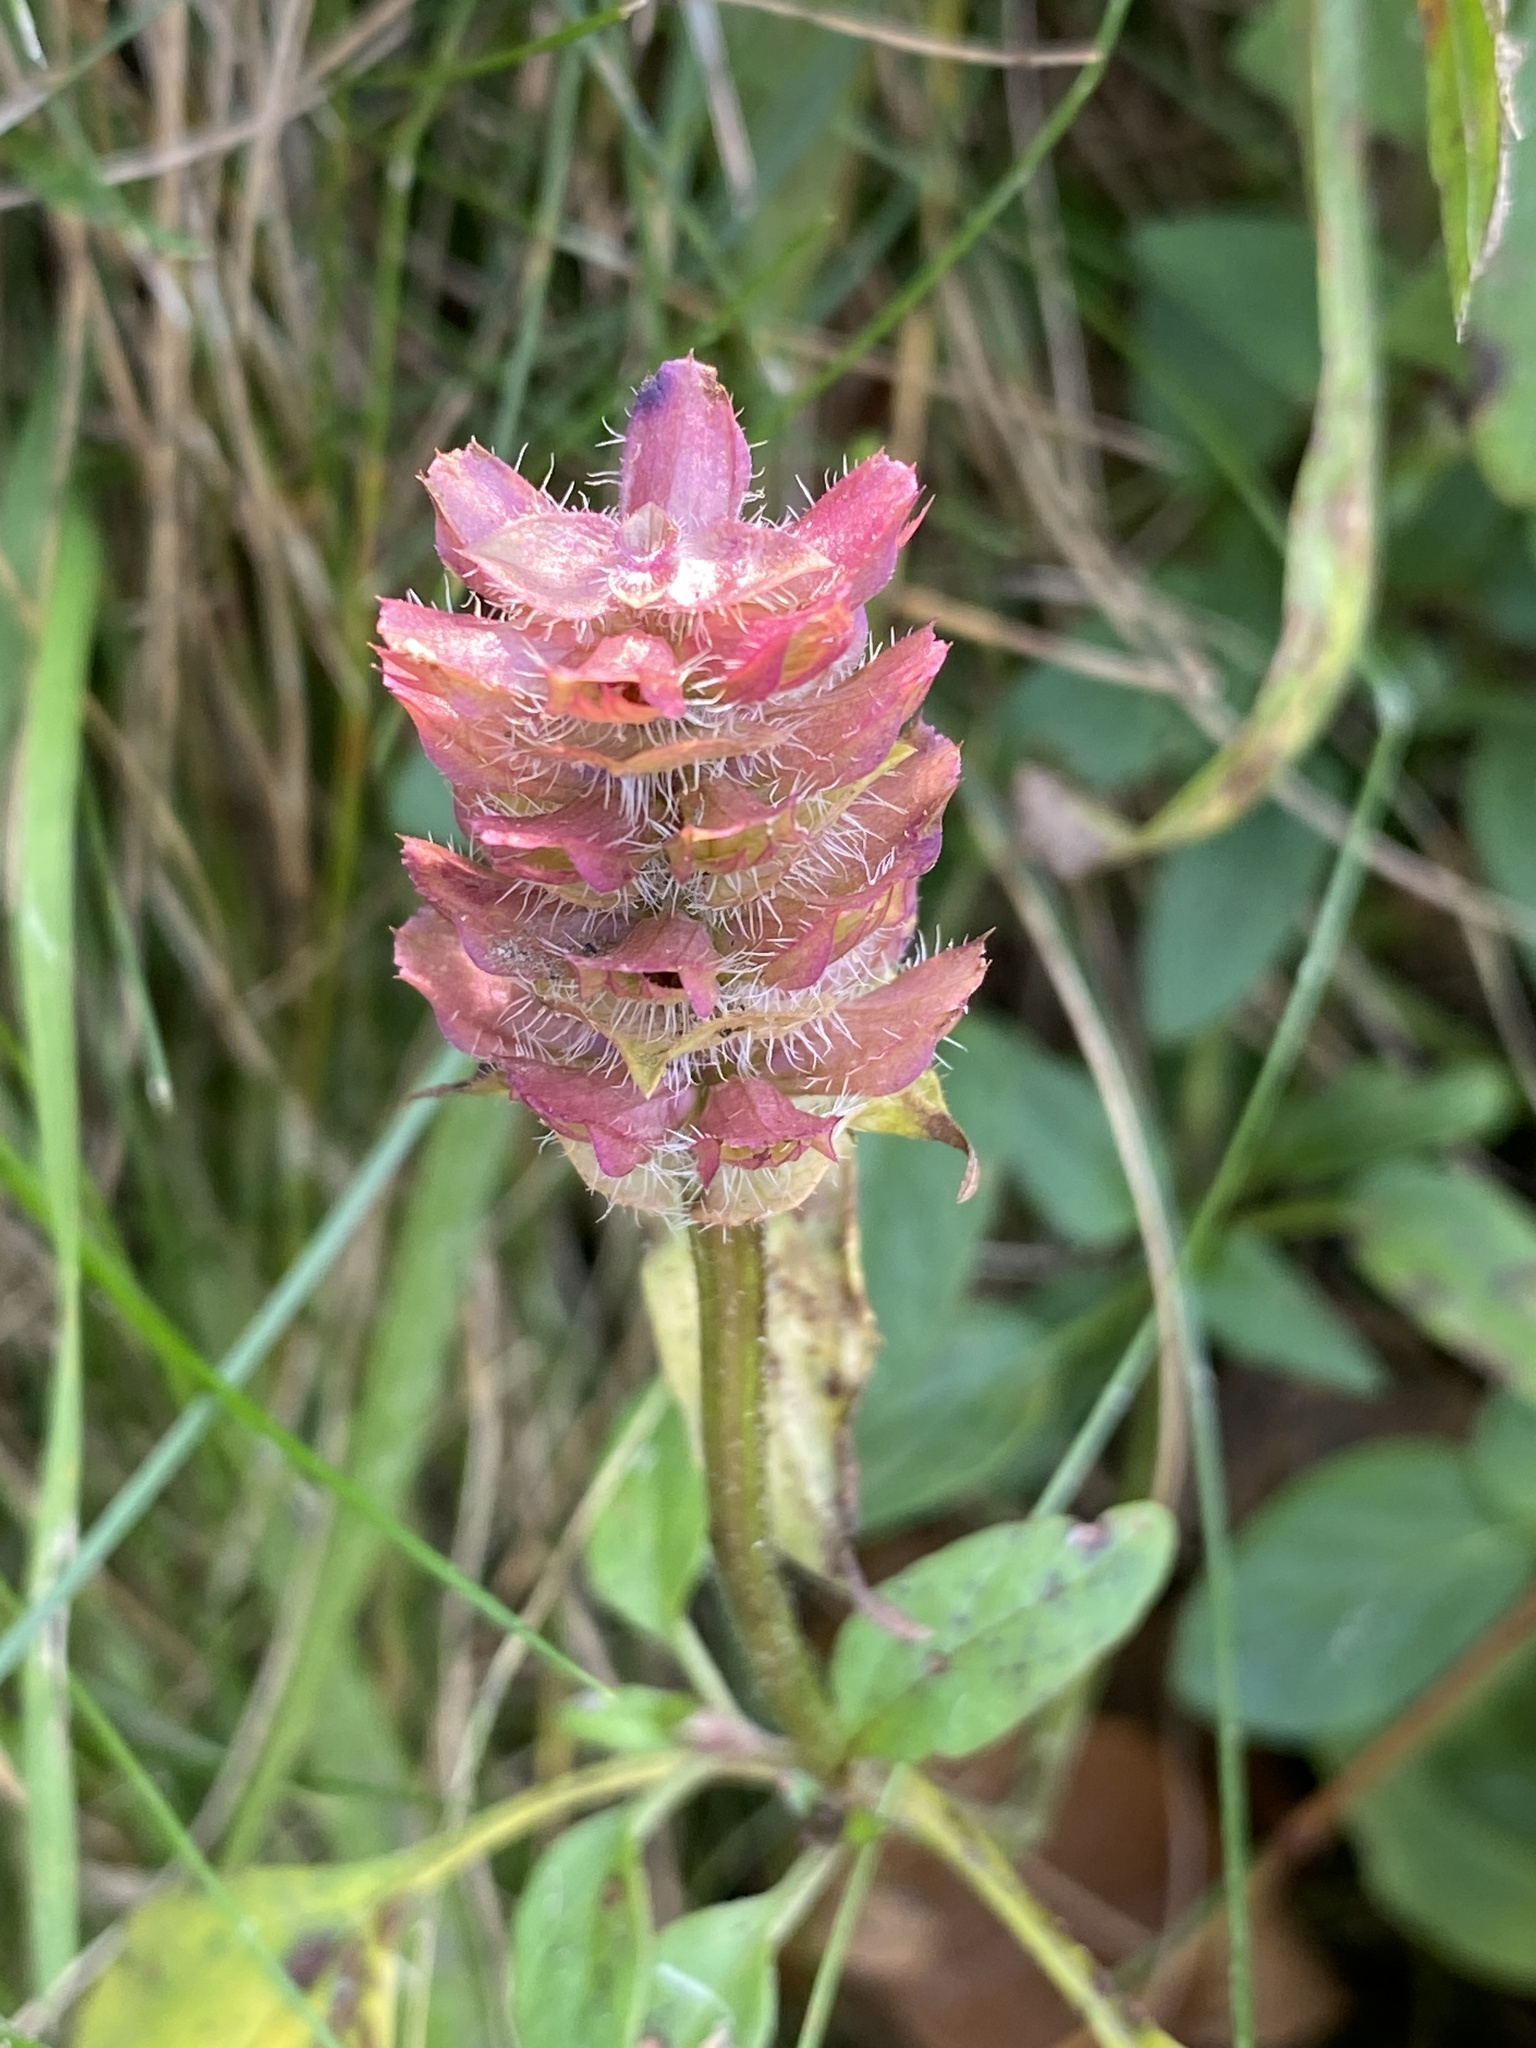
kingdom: Plantae
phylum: Tracheophyta
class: Magnoliopsida
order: Lamiales
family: Lamiaceae
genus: Prunella
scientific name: Prunella vulgaris
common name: Heal-all
